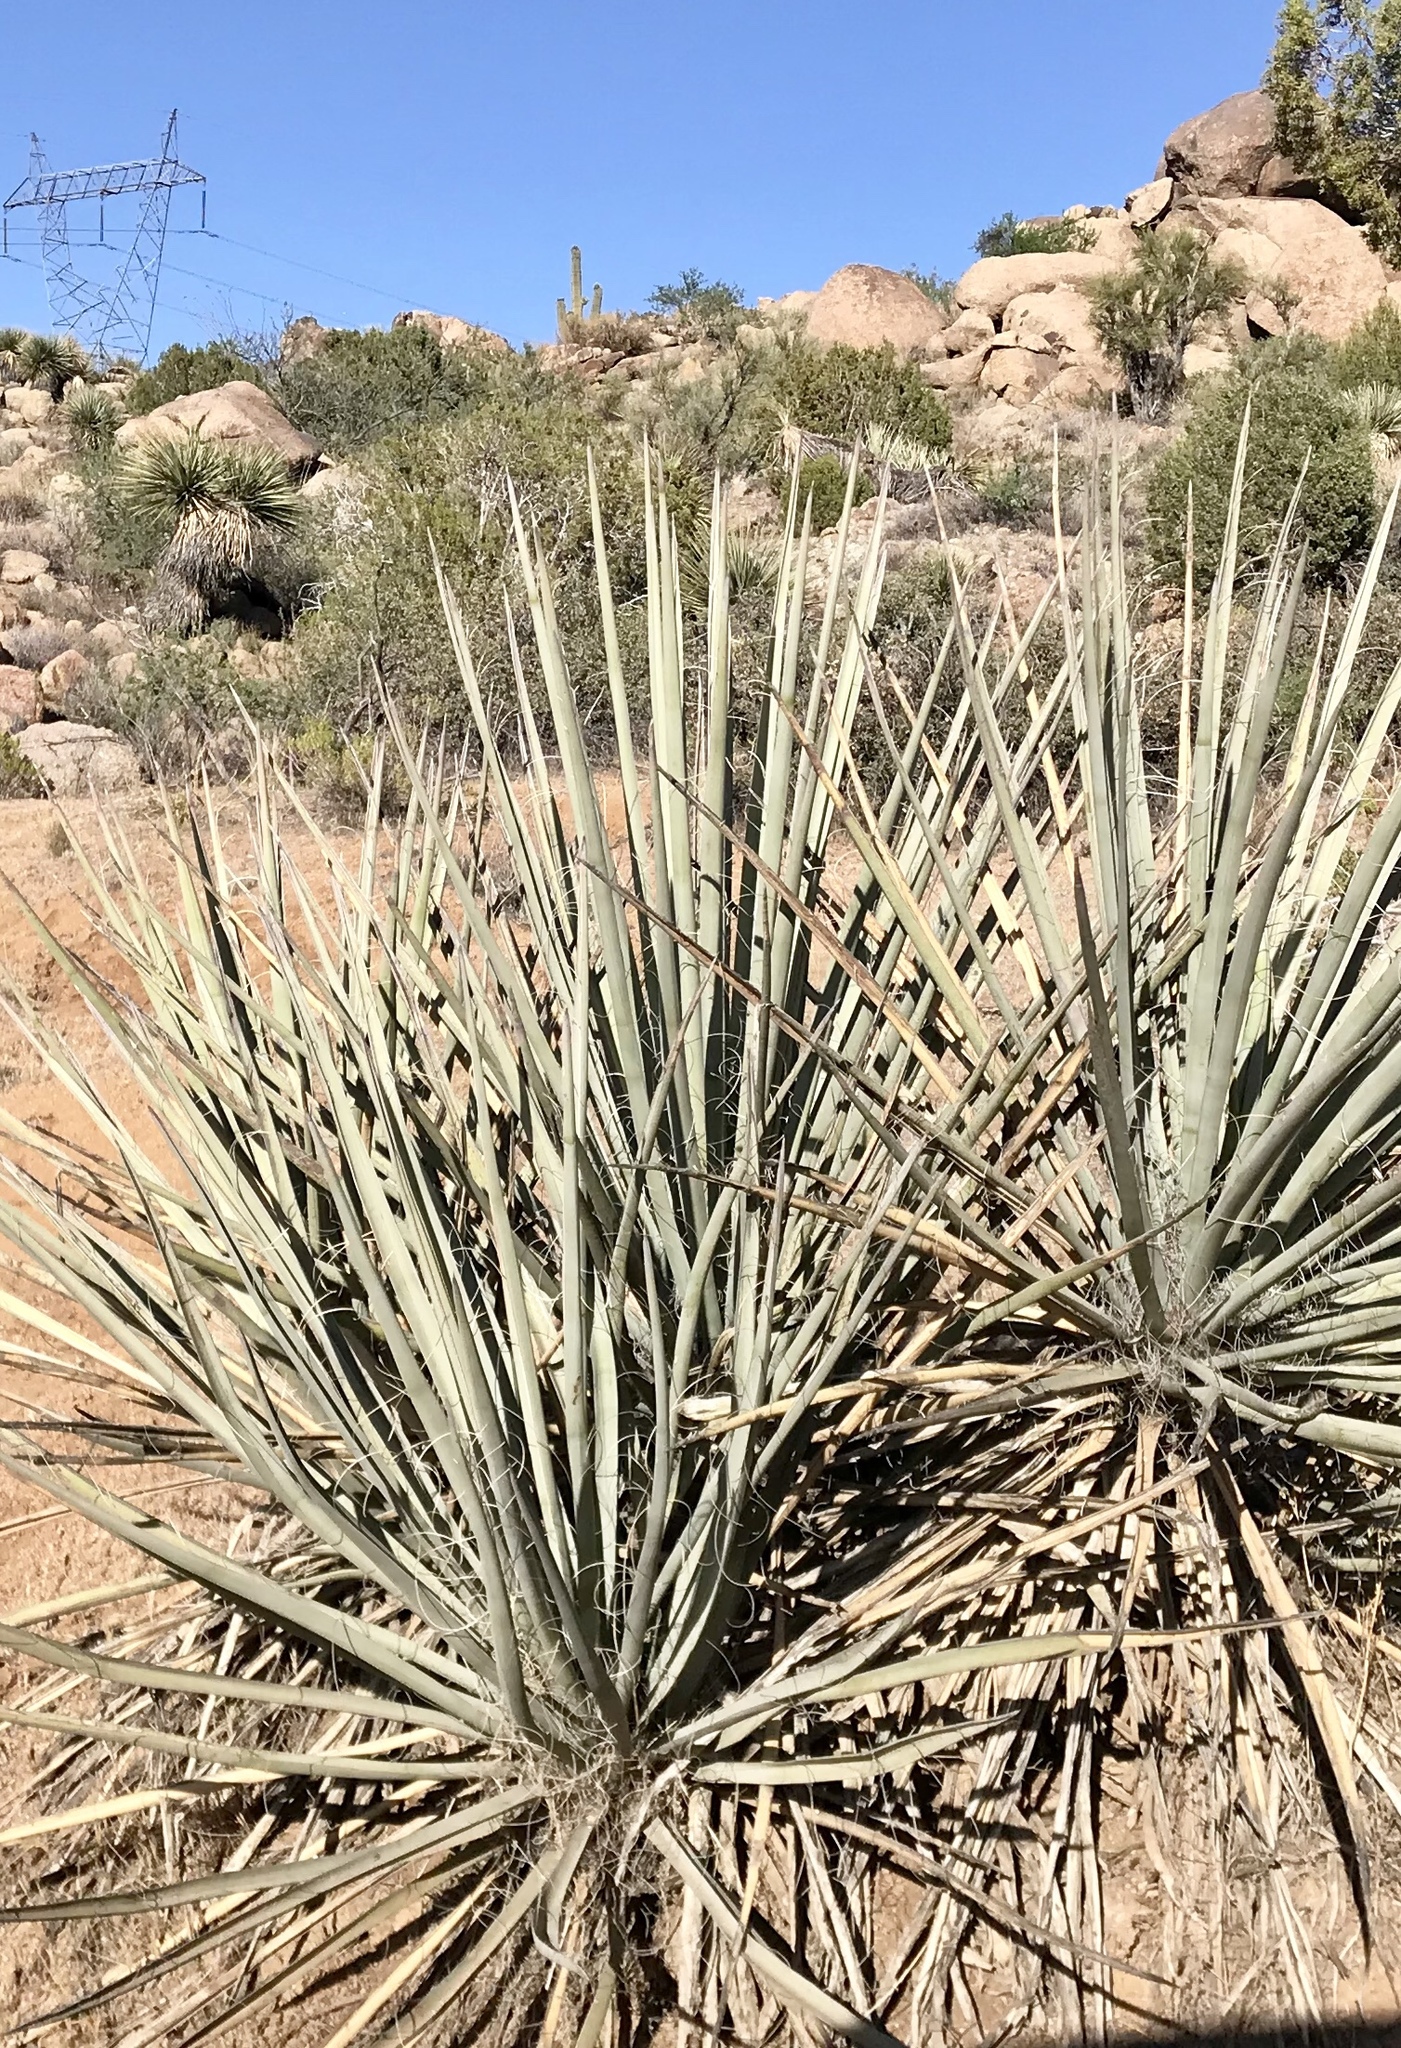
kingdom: Plantae
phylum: Tracheophyta
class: Liliopsida
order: Asparagales
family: Asparagaceae
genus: Yucca
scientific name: Yucca baccata
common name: Banana yucca
